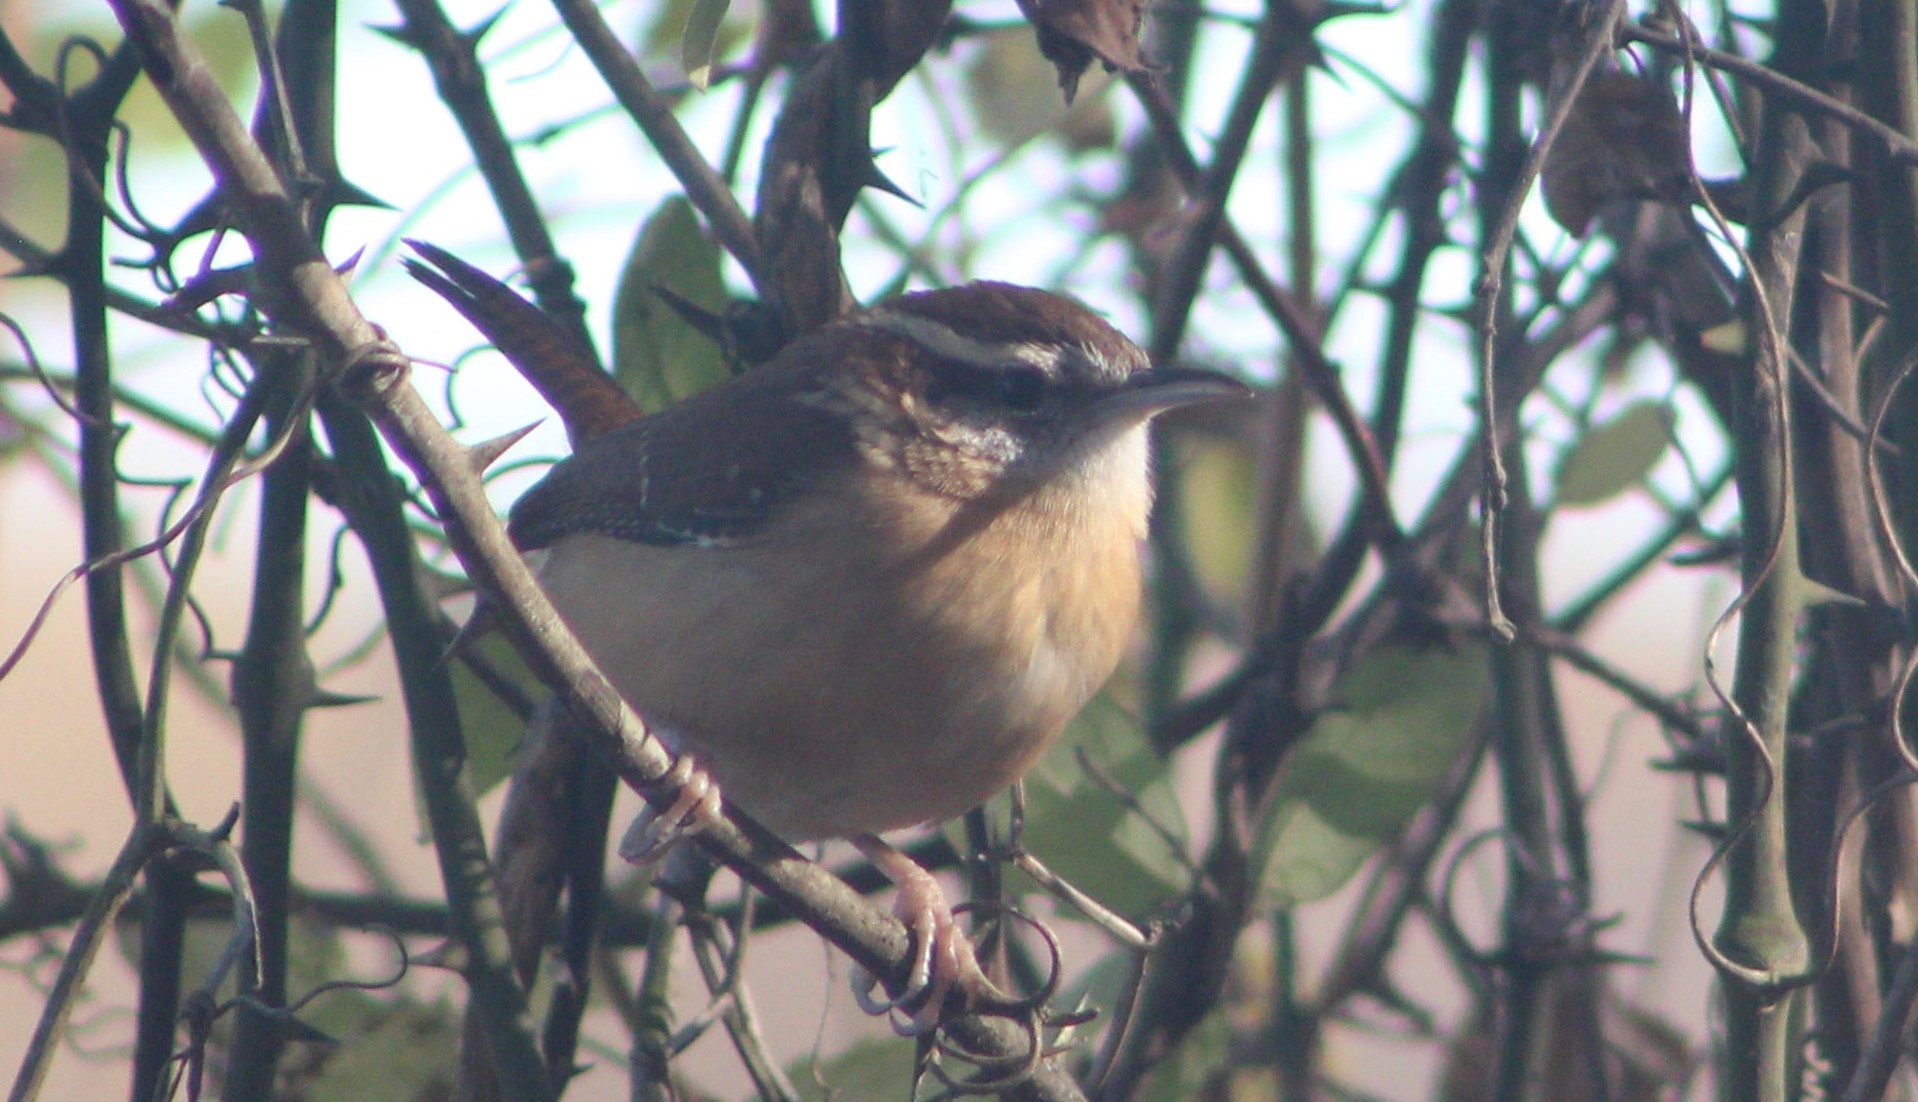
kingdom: Animalia
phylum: Chordata
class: Aves
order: Passeriformes
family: Troglodytidae
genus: Thryothorus
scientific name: Thryothorus ludovicianus
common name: Carolina wren
